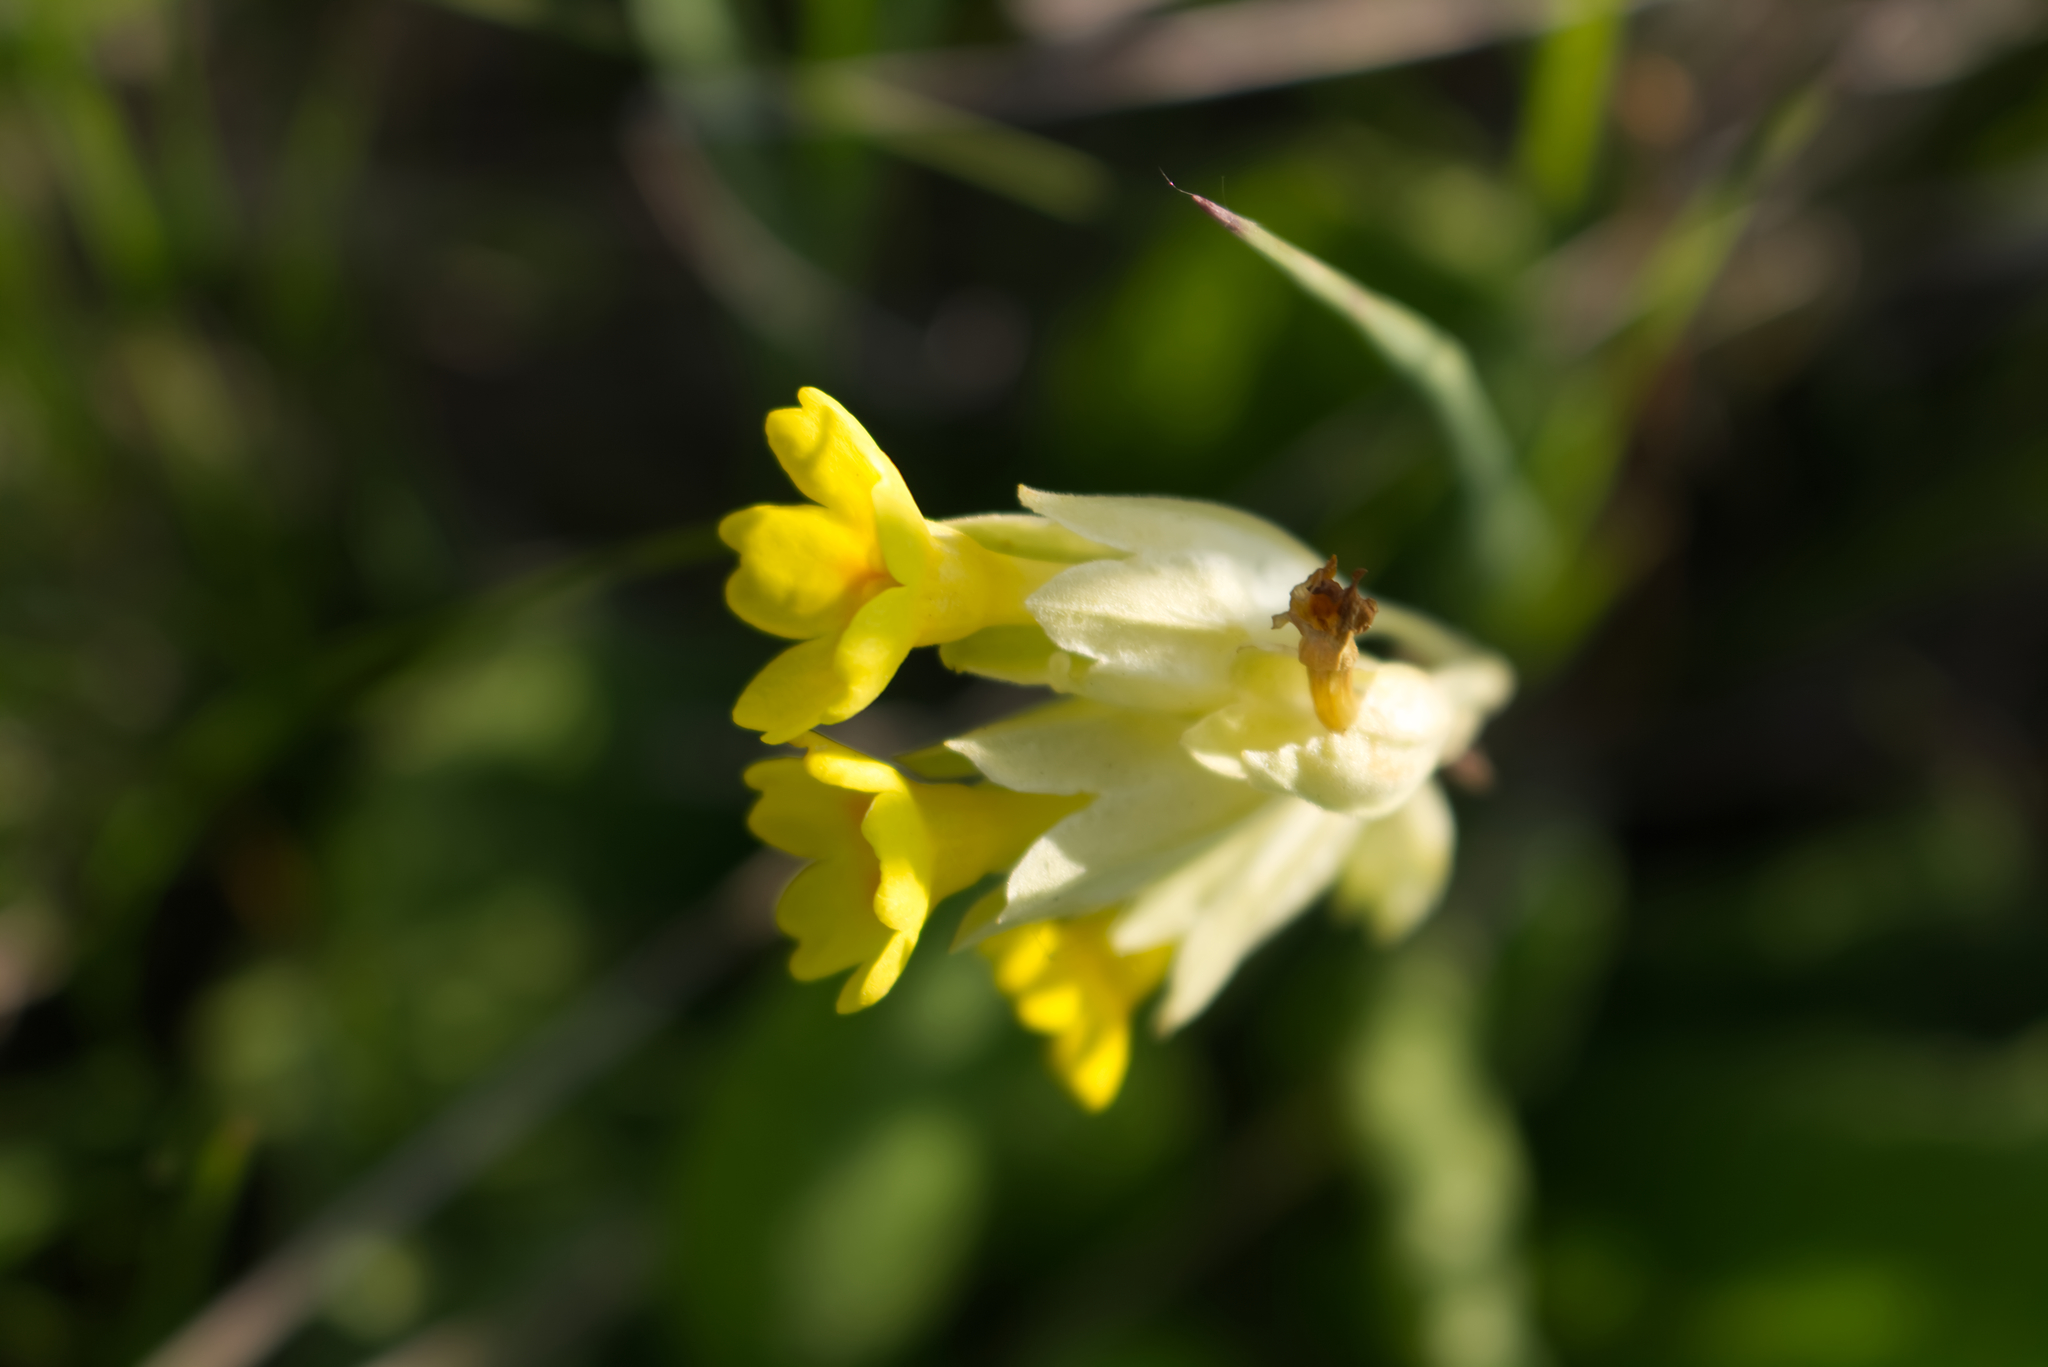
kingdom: Plantae
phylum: Tracheophyta
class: Magnoliopsida
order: Ericales
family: Primulaceae
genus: Primula
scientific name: Primula veris
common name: Cowslip
